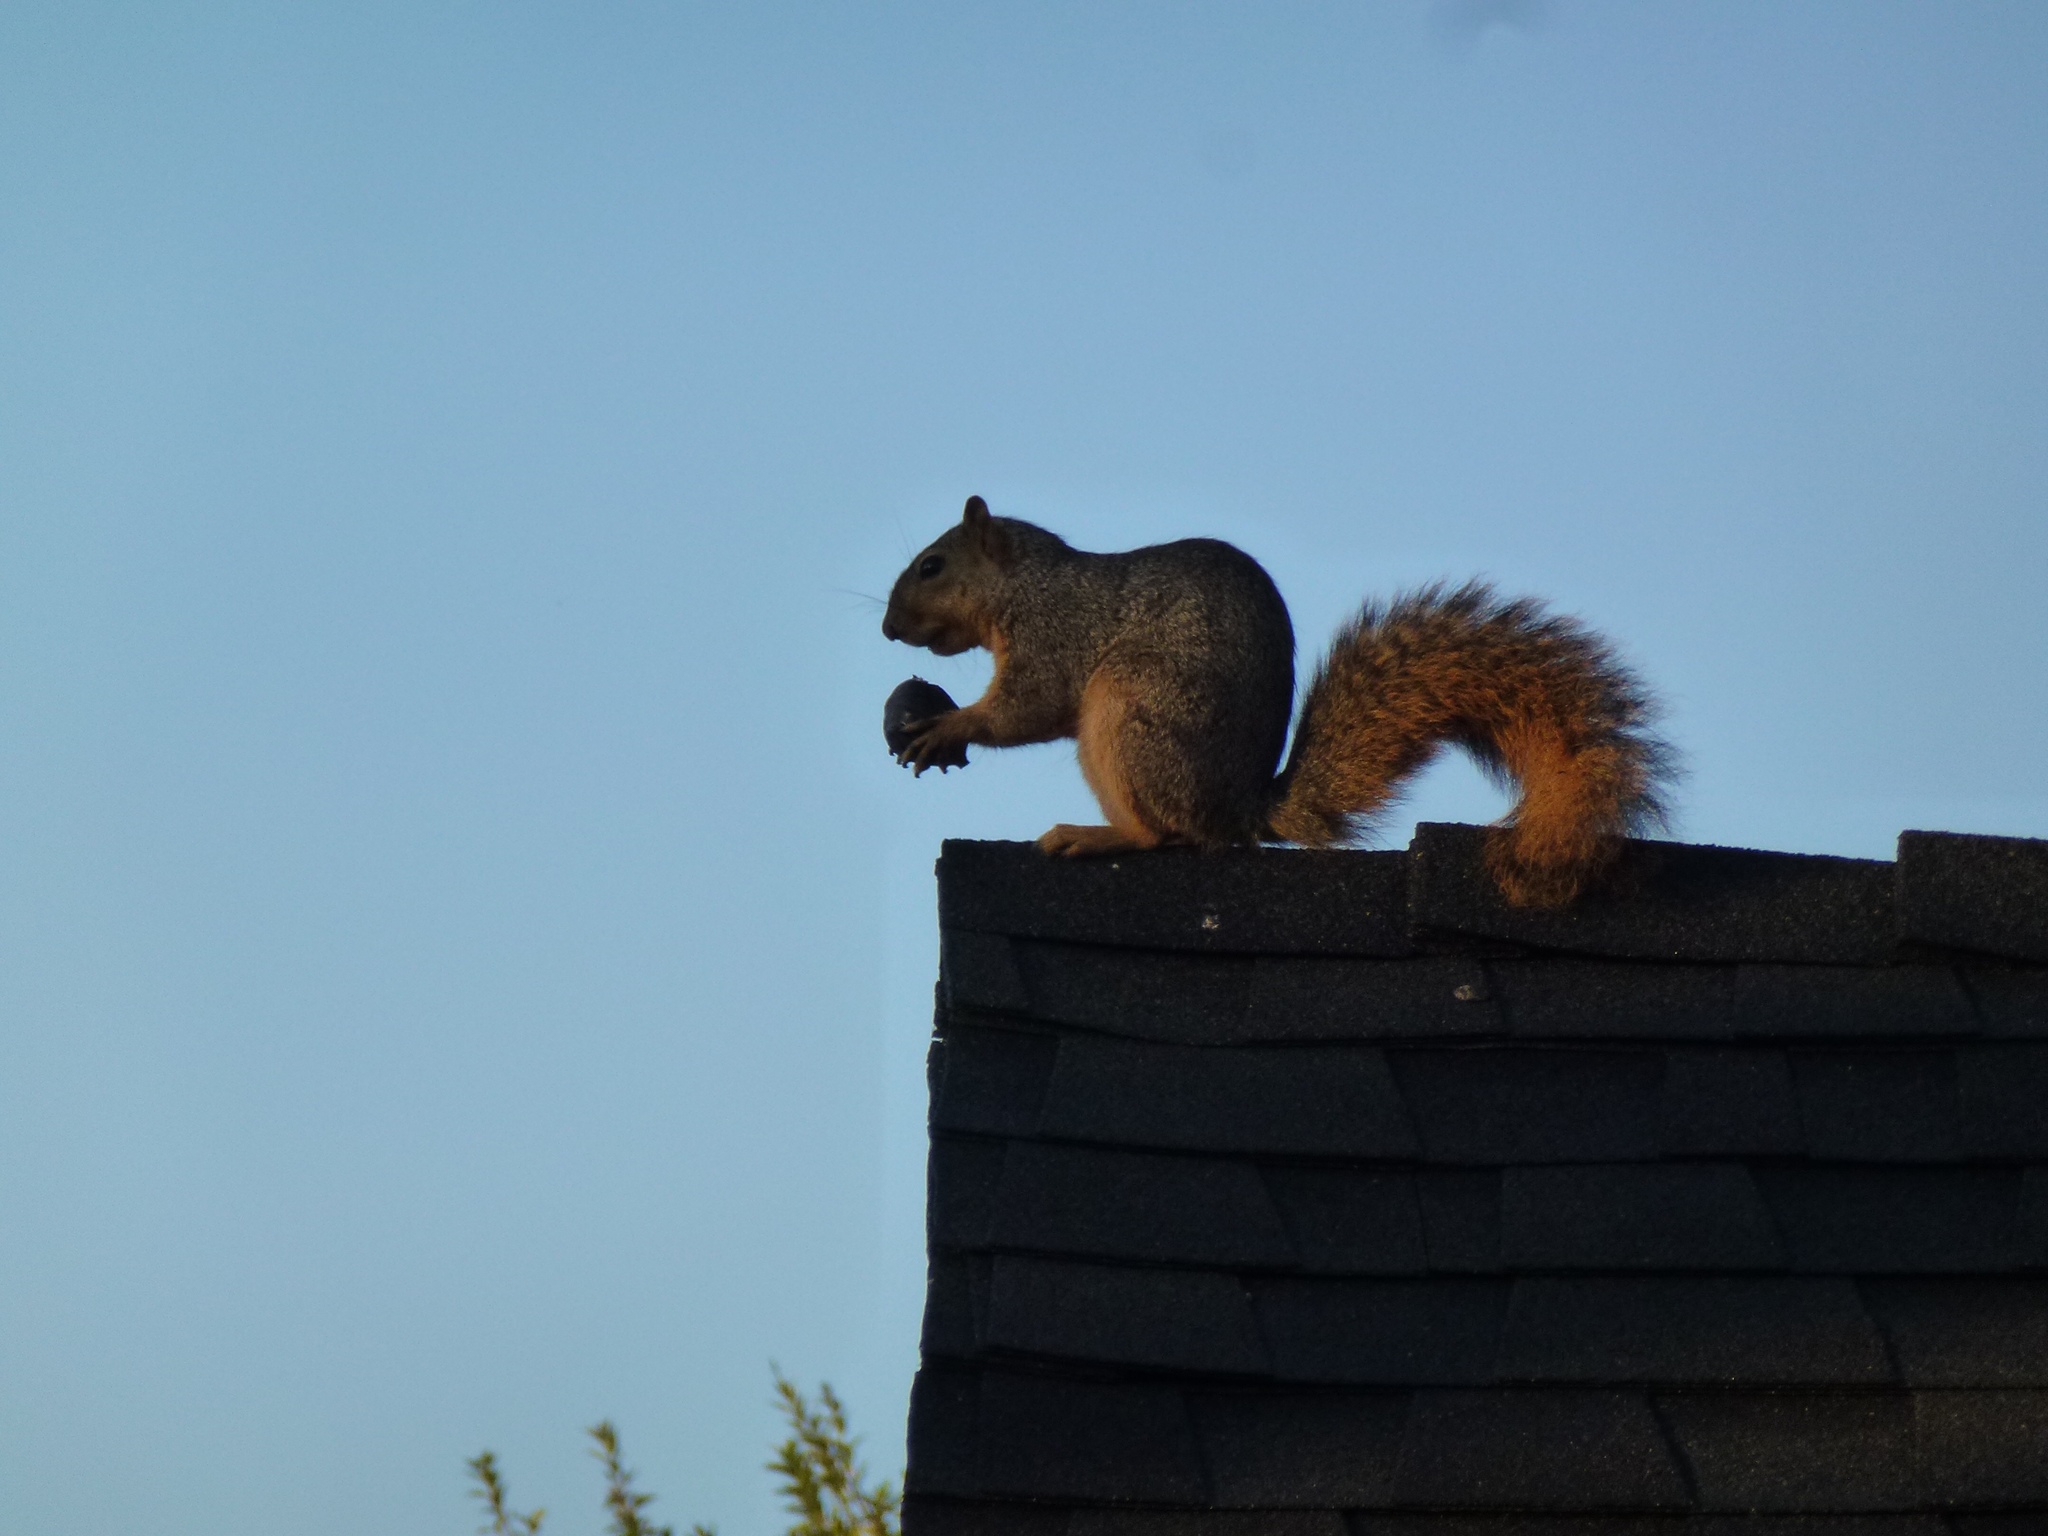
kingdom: Animalia
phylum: Chordata
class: Mammalia
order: Rodentia
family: Sciuridae
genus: Sciurus
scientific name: Sciurus niger
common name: Fox squirrel
